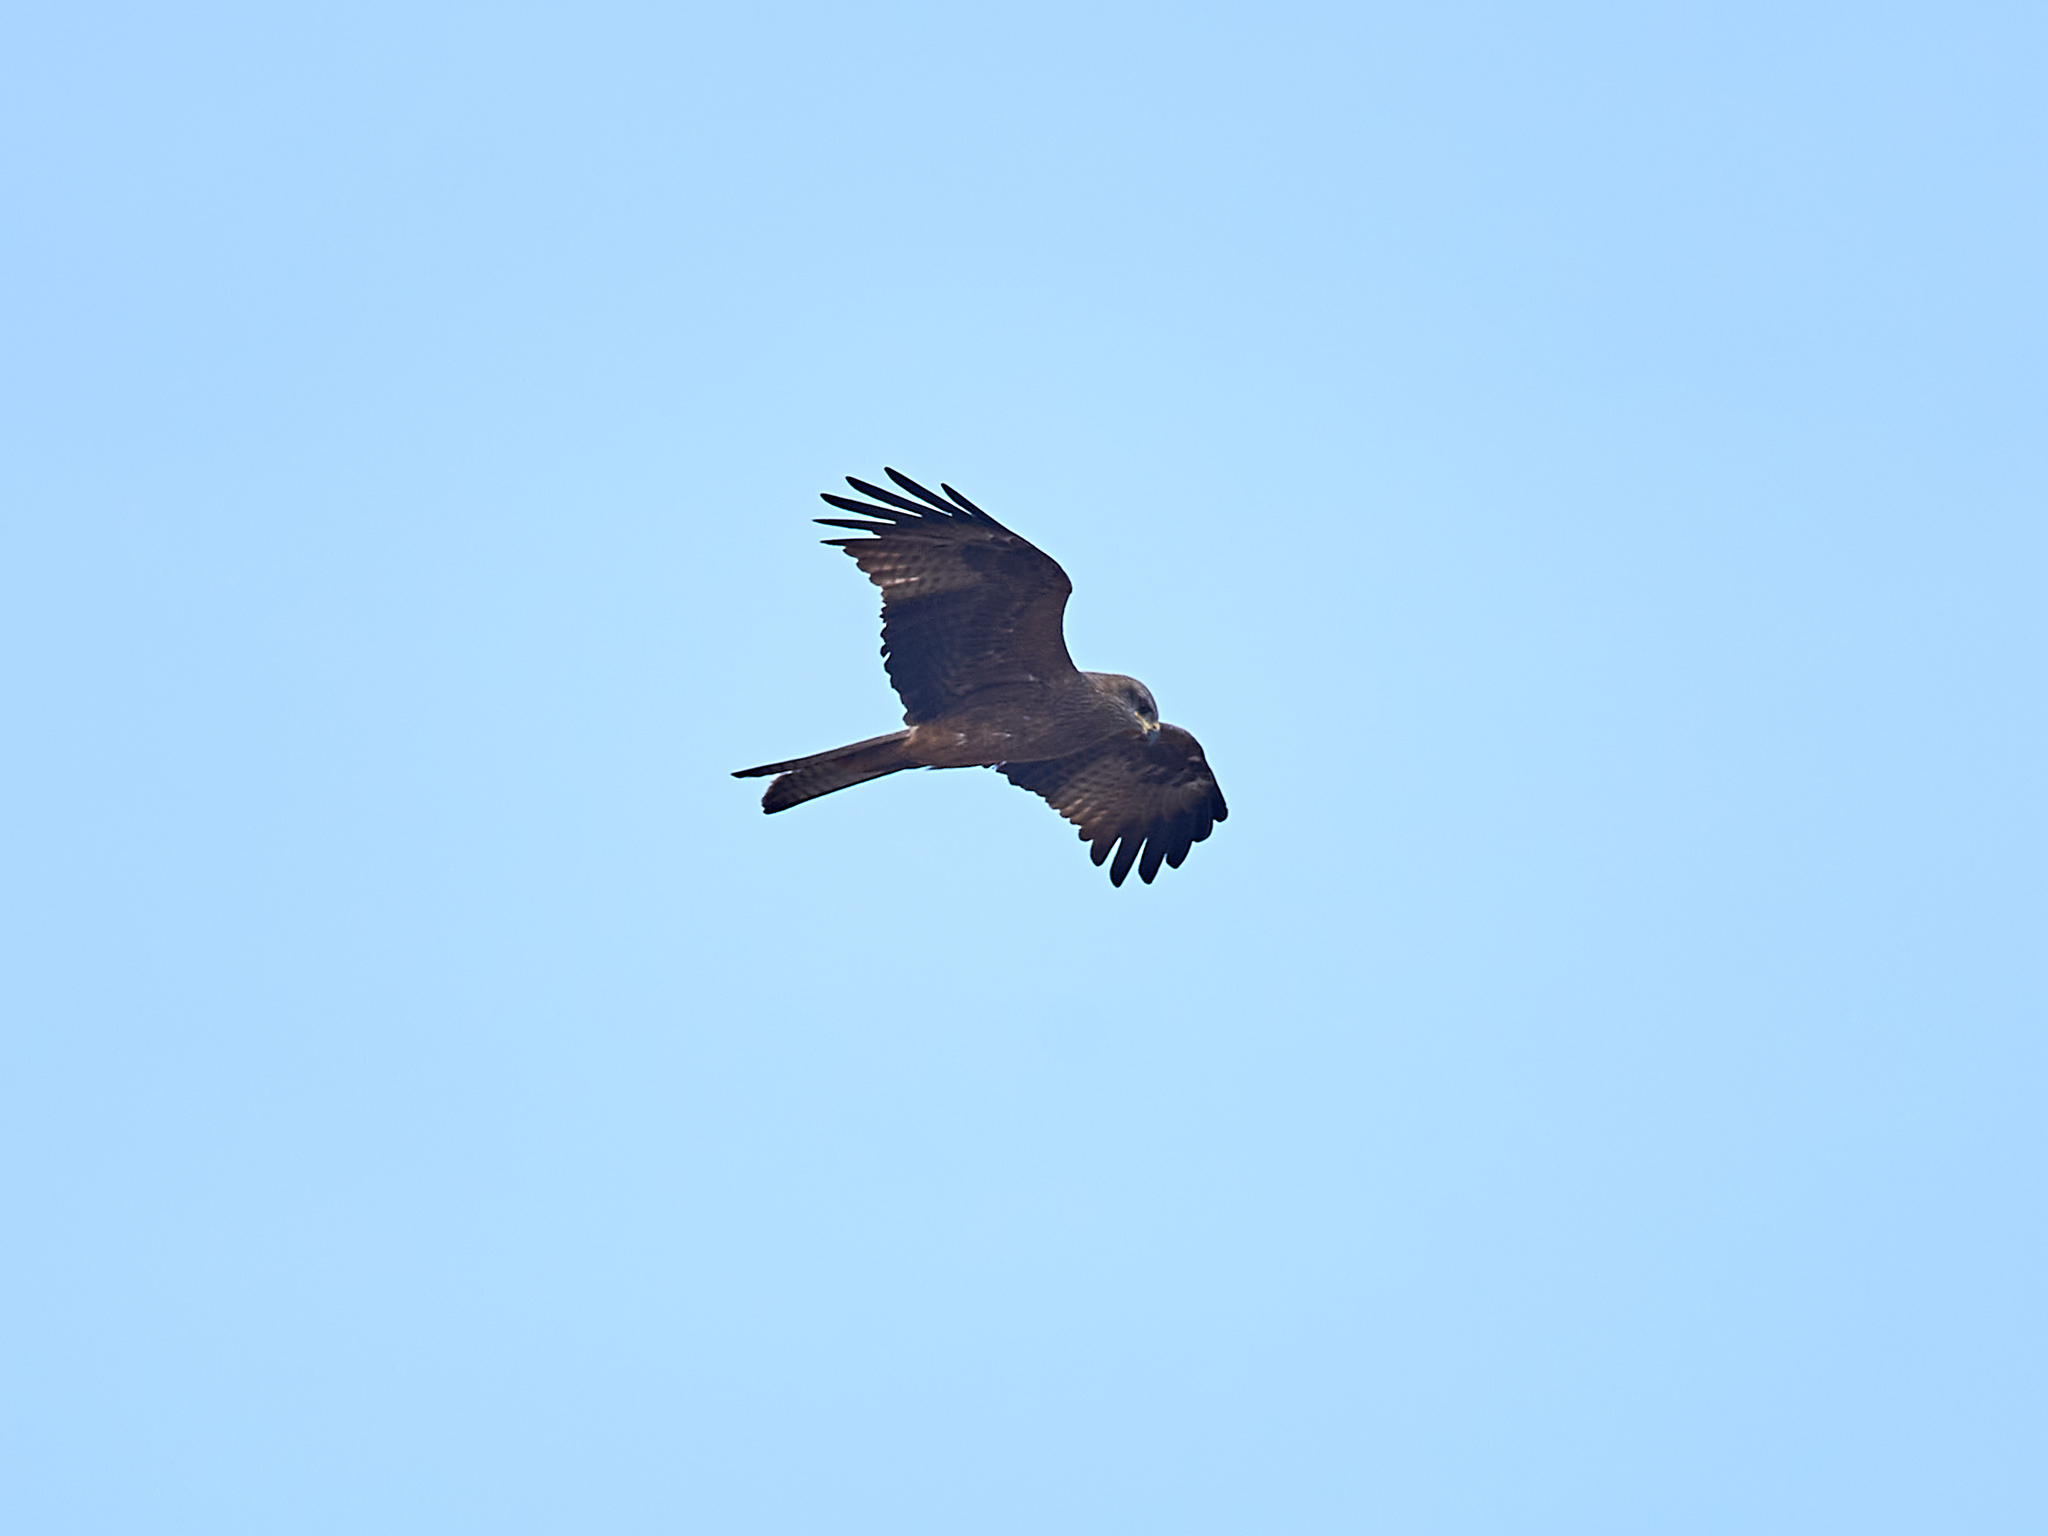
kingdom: Animalia
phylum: Chordata
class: Aves
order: Accipitriformes
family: Accipitridae
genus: Milvus
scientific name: Milvus migrans
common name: Black kite
